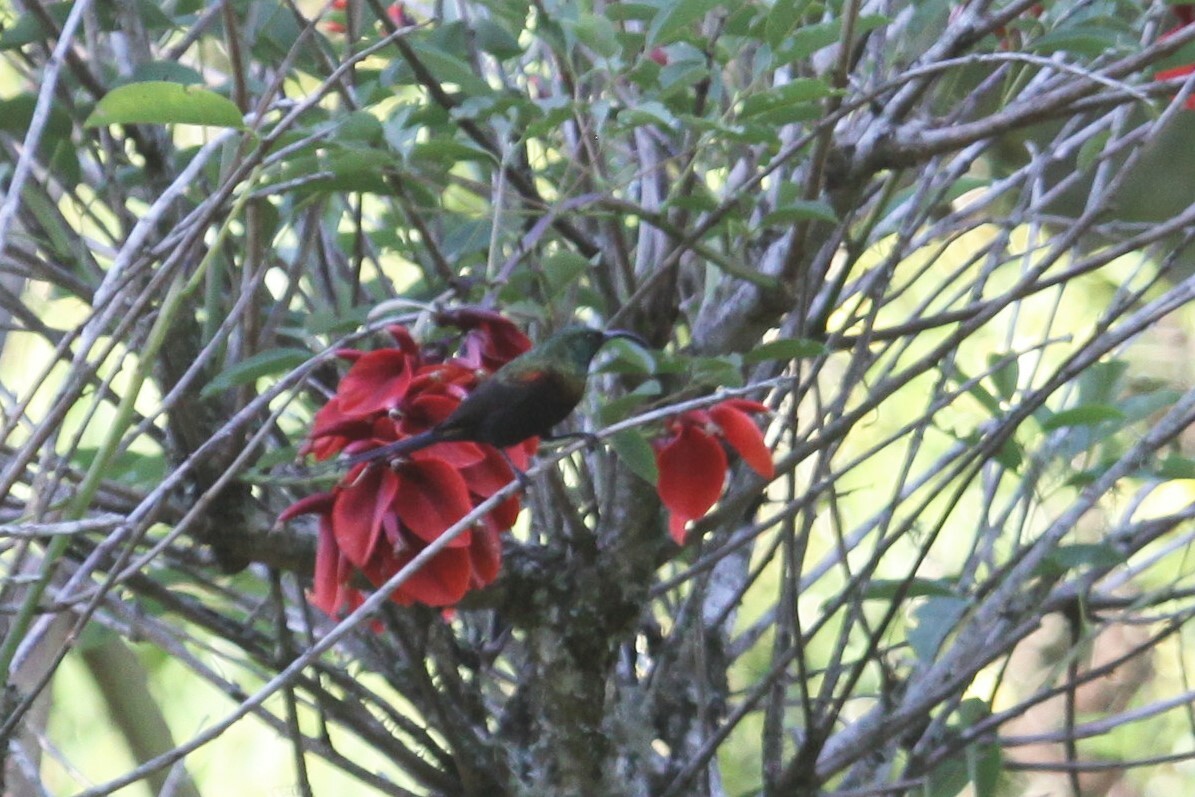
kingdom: Animalia
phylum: Chordata
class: Aves
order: Passeriformes
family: Nectariniidae
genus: Nectarinia
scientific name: Nectarinia kilimensis
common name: Bronzy sunbird
